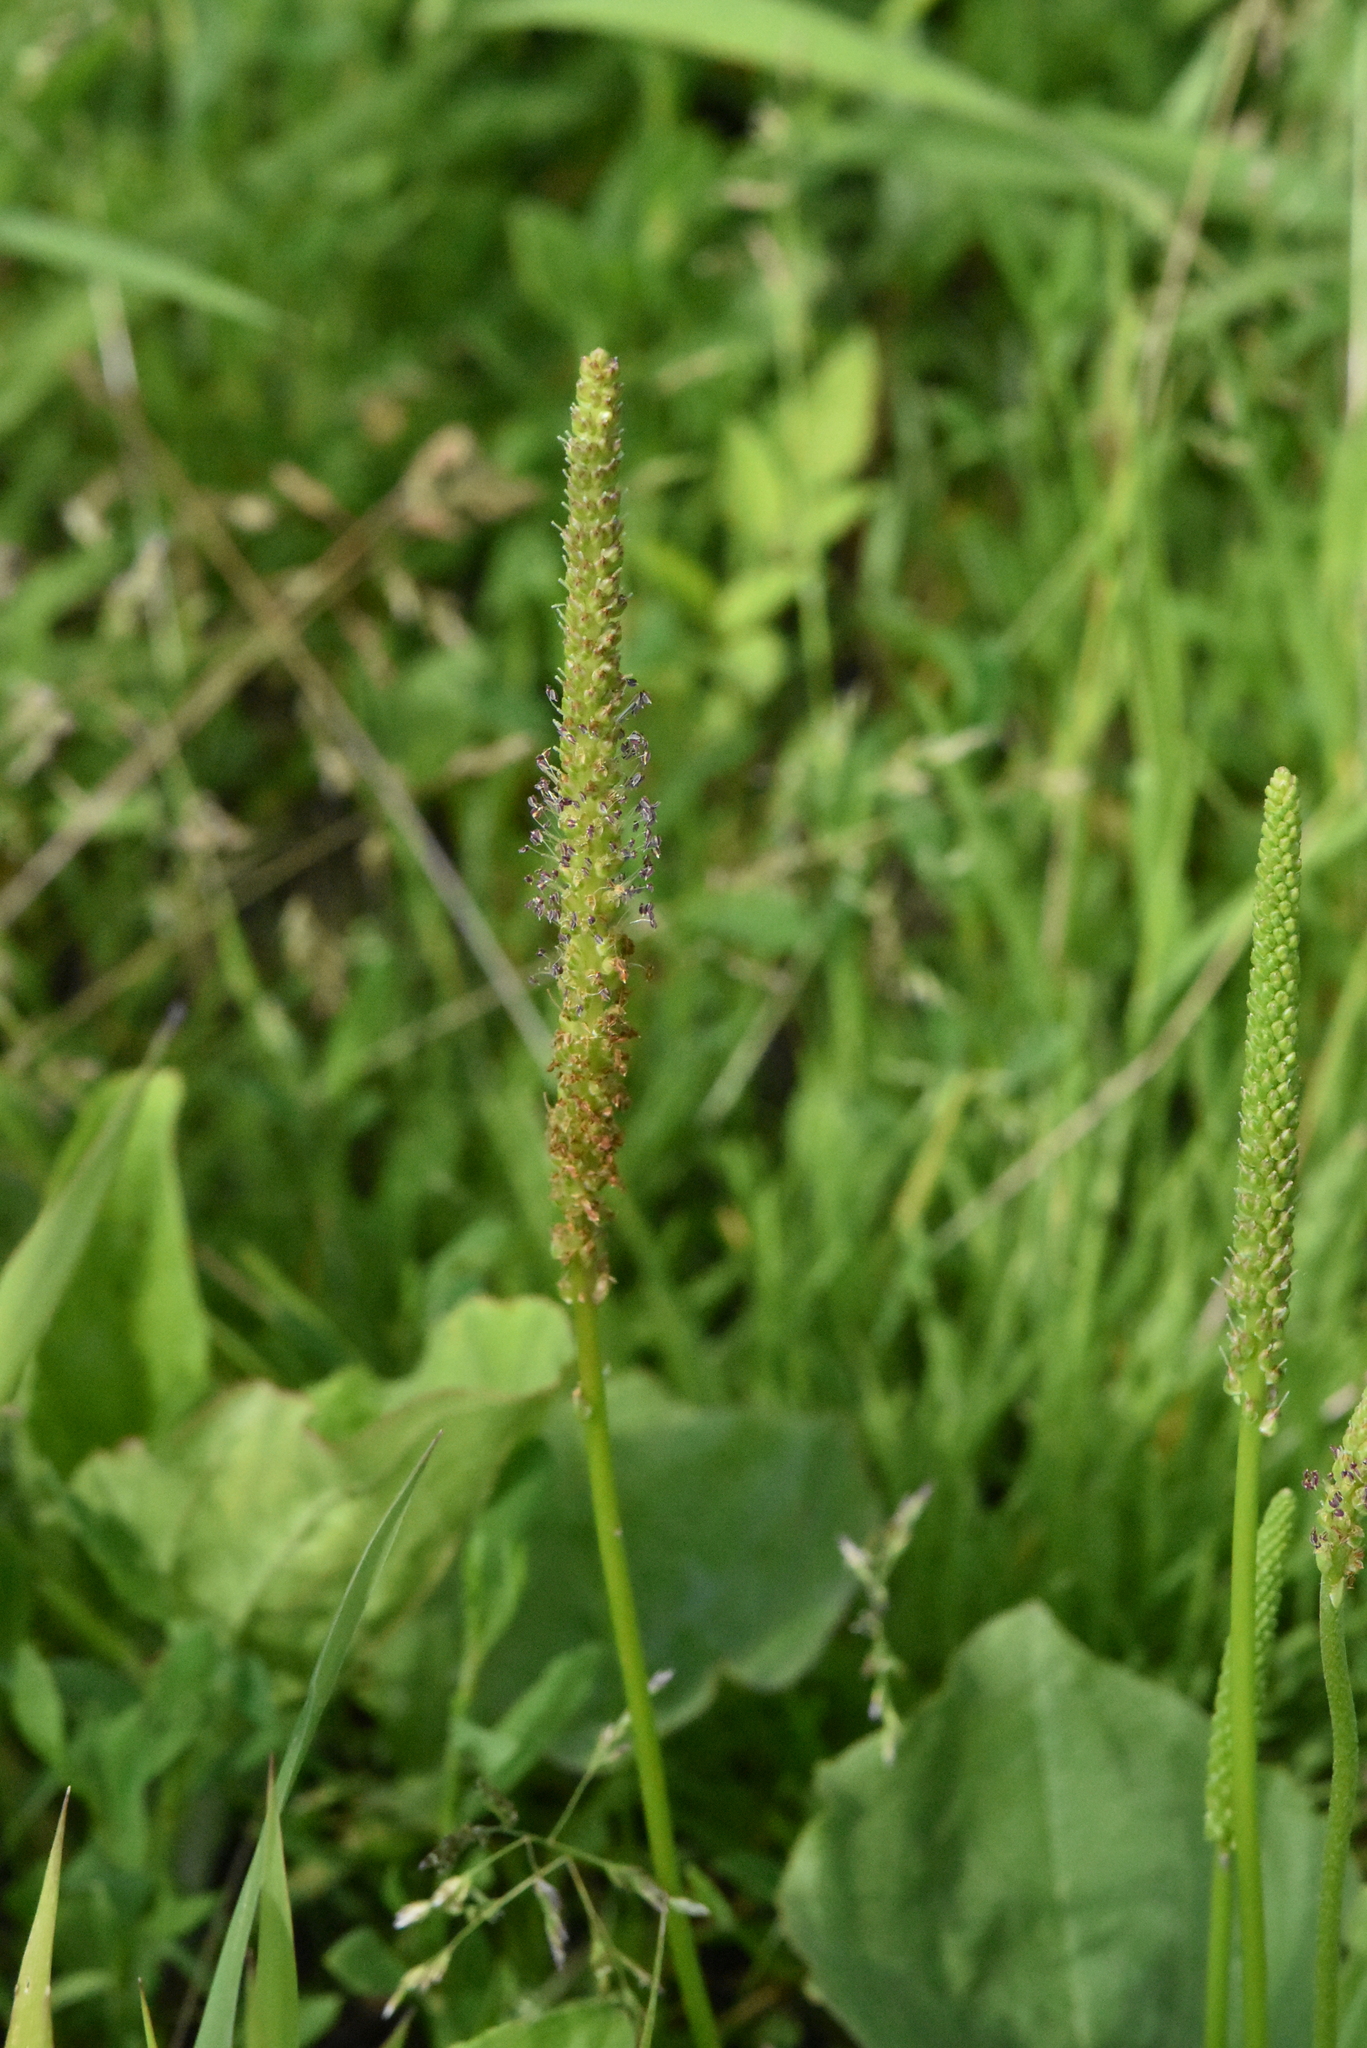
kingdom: Plantae
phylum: Tracheophyta
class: Magnoliopsida
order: Lamiales
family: Plantaginaceae
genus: Plantago
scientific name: Plantago major
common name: Common plantain
